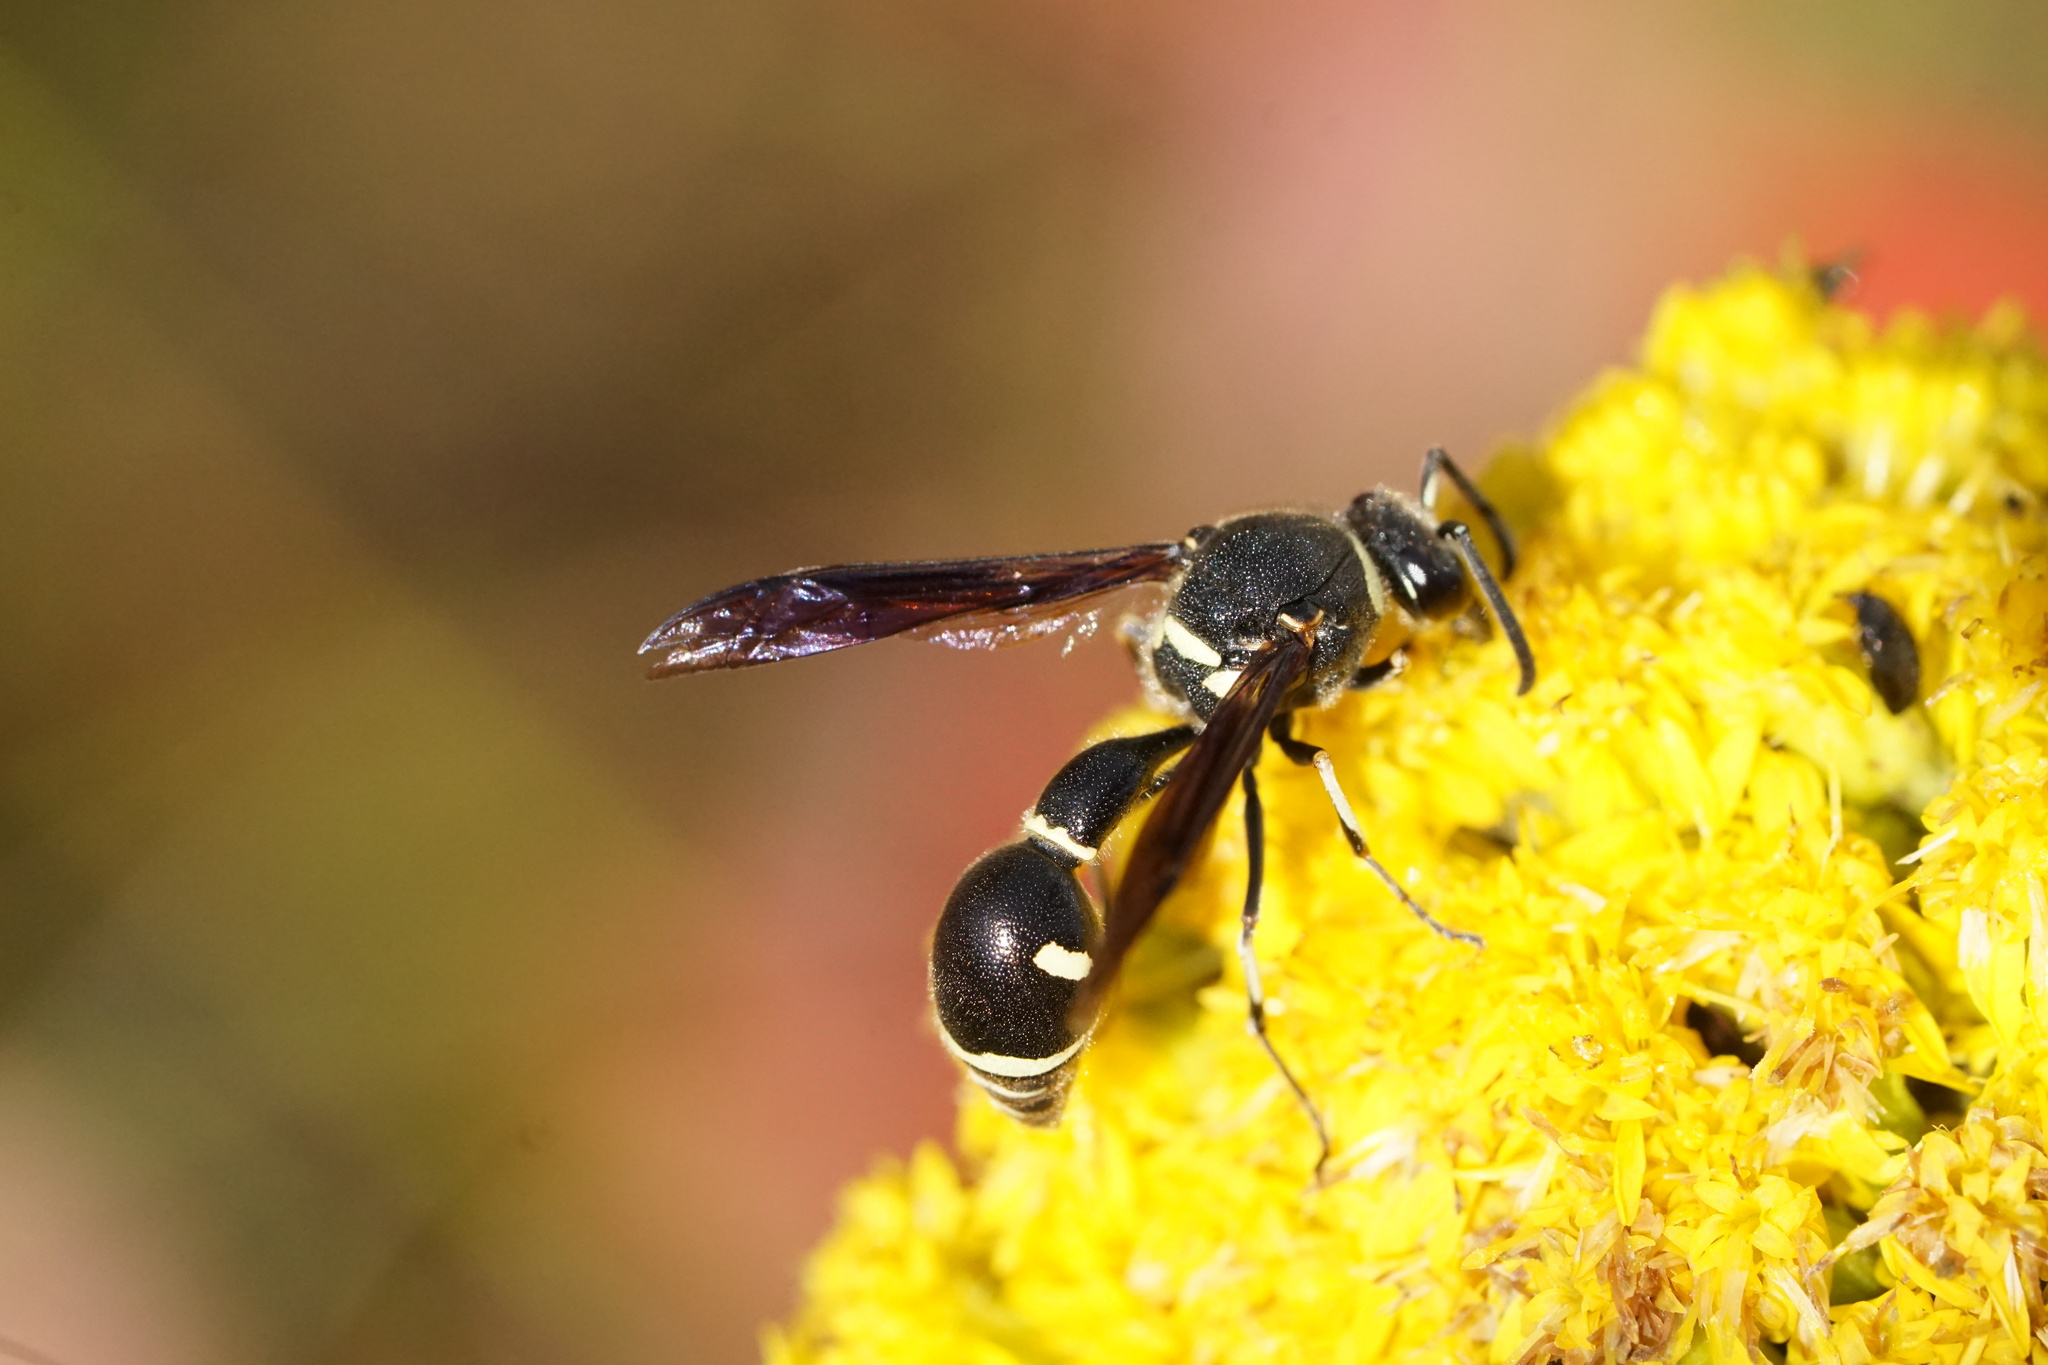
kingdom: Animalia
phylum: Arthropoda
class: Insecta
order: Hymenoptera
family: Vespidae
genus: Eumenes
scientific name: Eumenes fraternus
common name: Fraternal potter wasp
